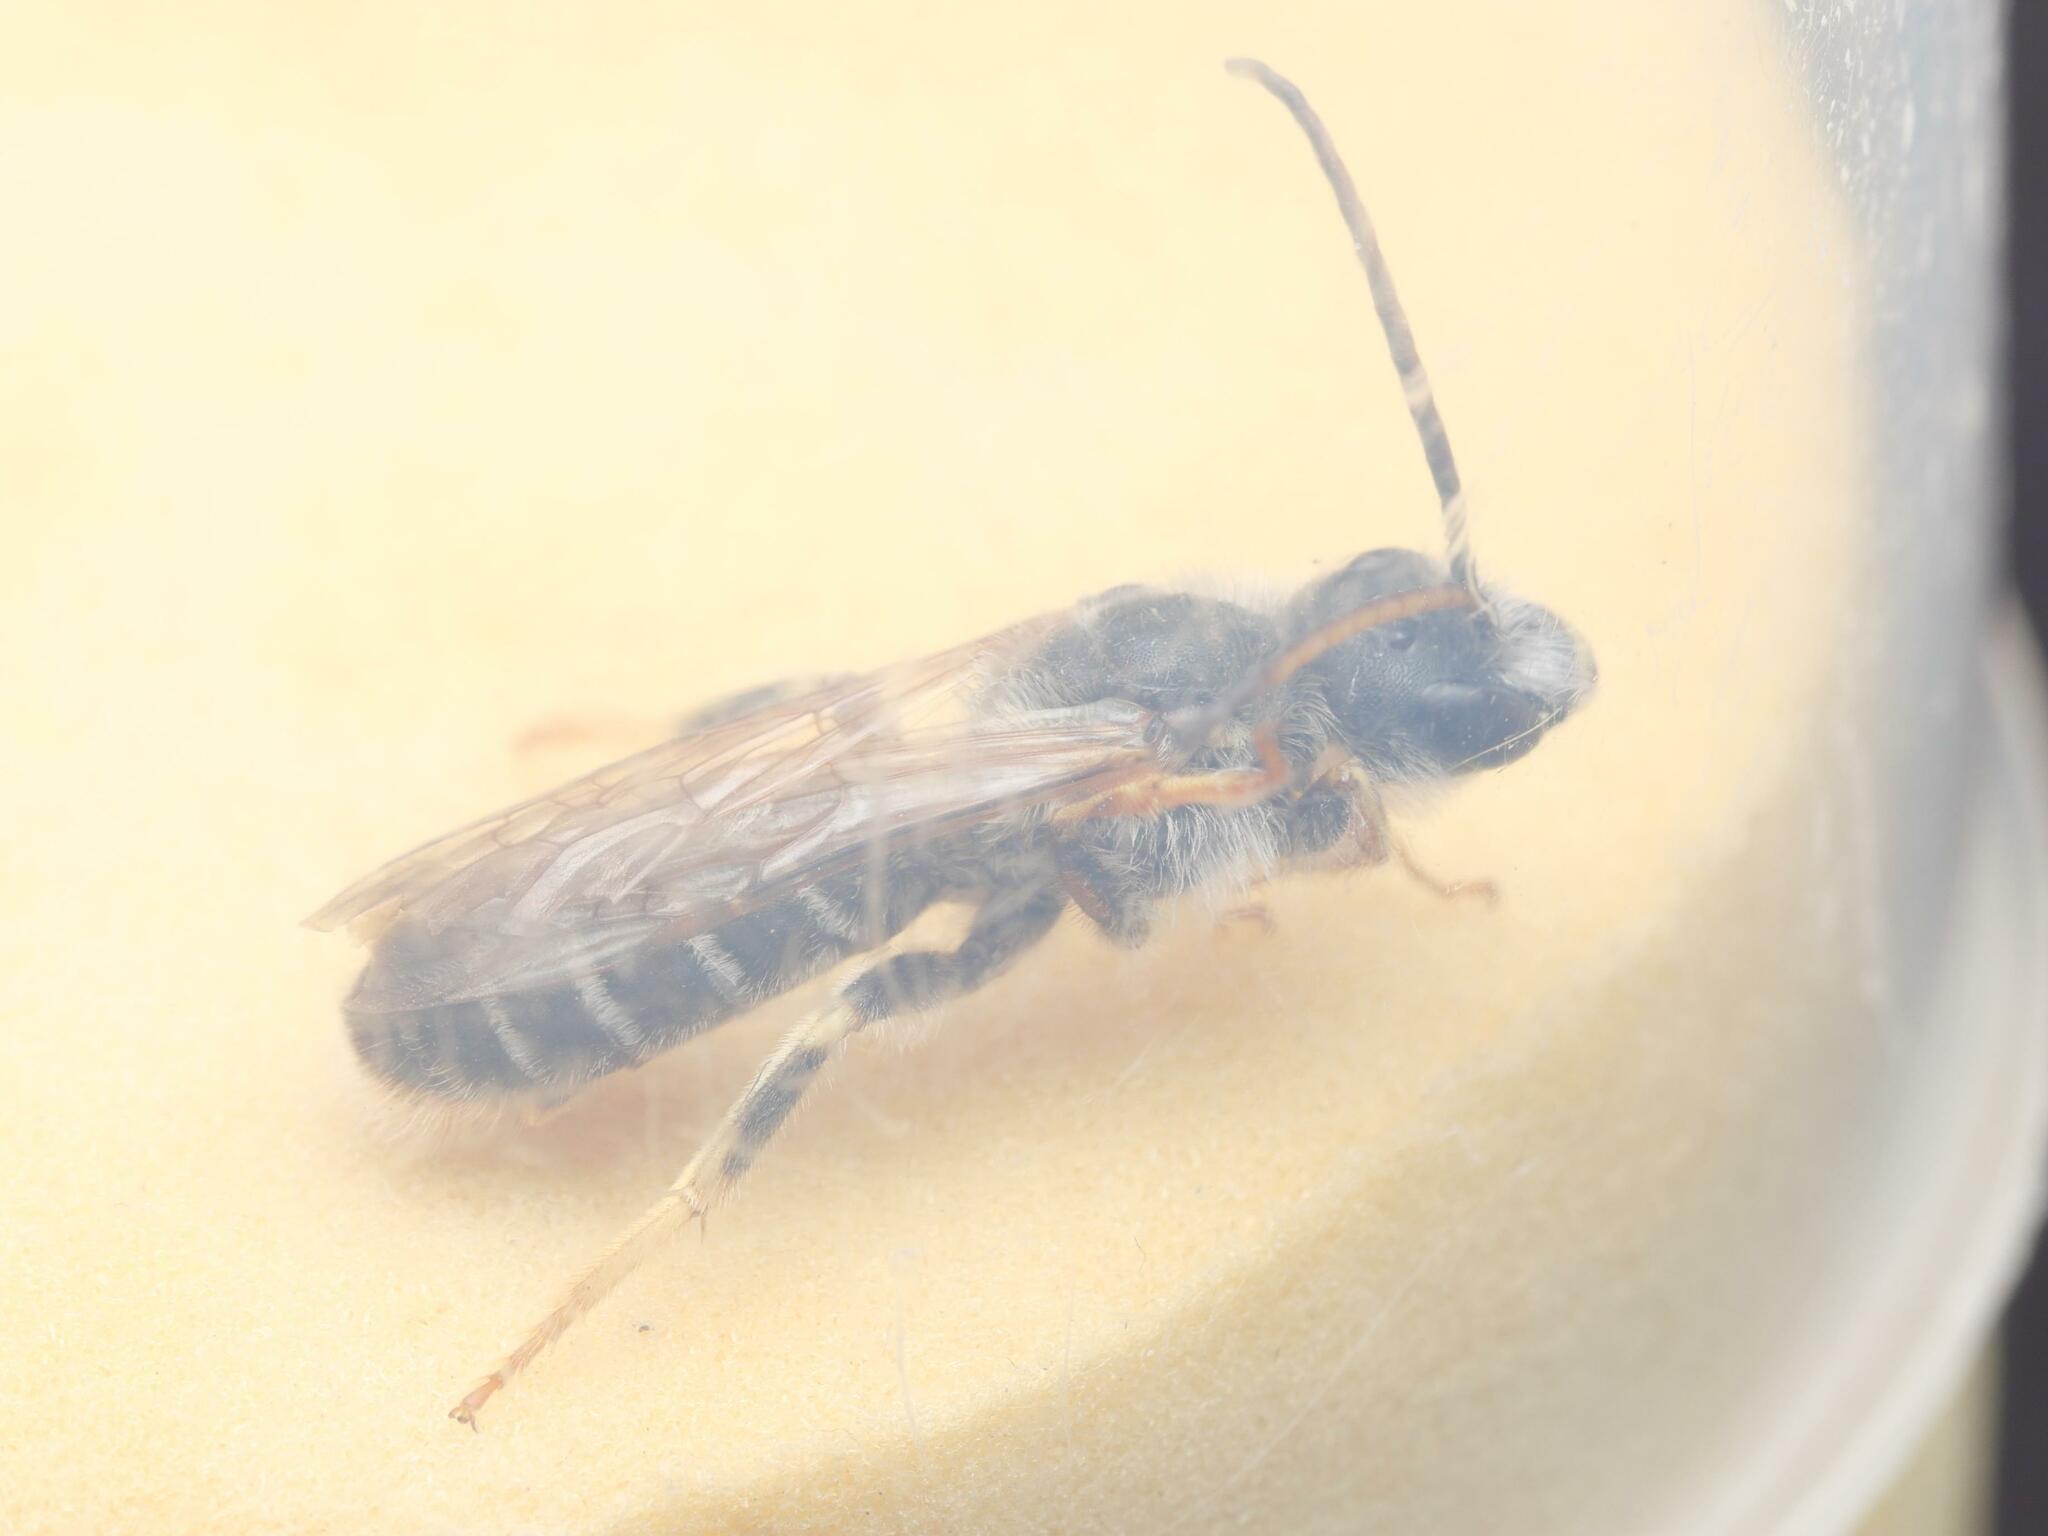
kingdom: Animalia
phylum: Arthropoda
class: Insecta
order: Hymenoptera
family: Halictidae
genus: Halictus
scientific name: Halictus quadricinctus
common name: Giant furrow bee
